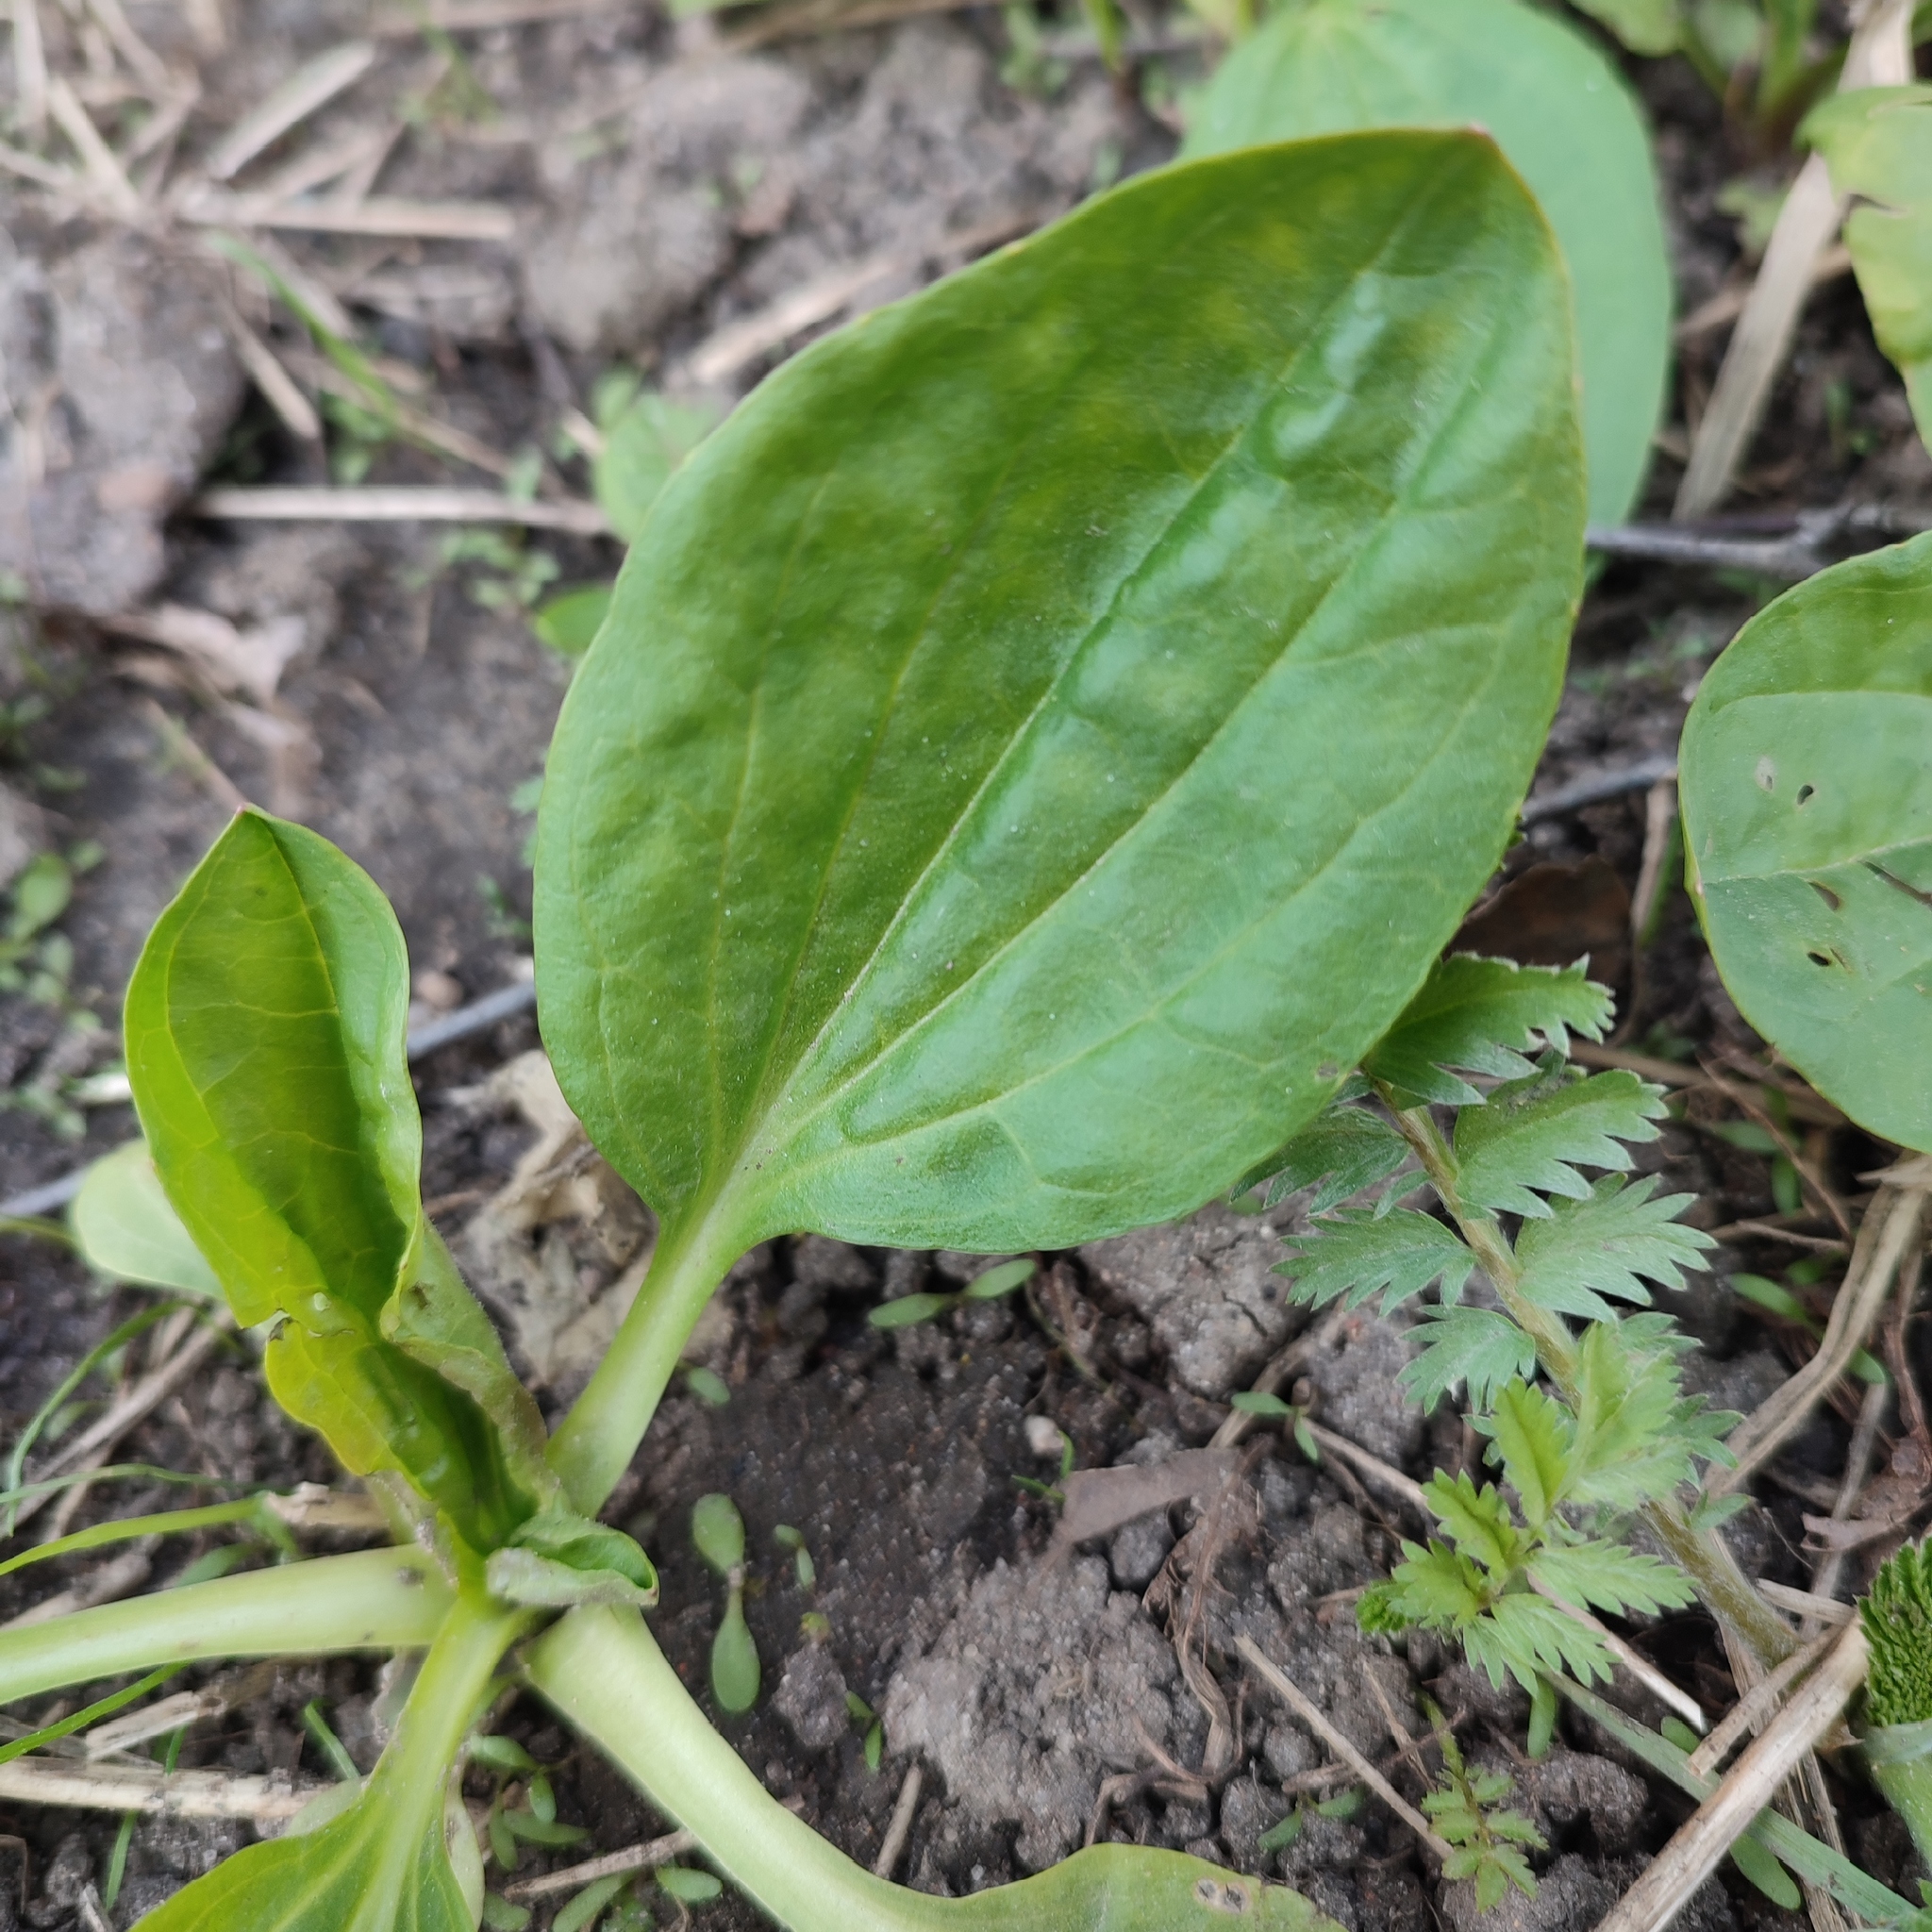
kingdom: Plantae
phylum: Tracheophyta
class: Magnoliopsida
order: Lamiales
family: Plantaginaceae
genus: Plantago
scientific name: Plantago major
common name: Common plantain
